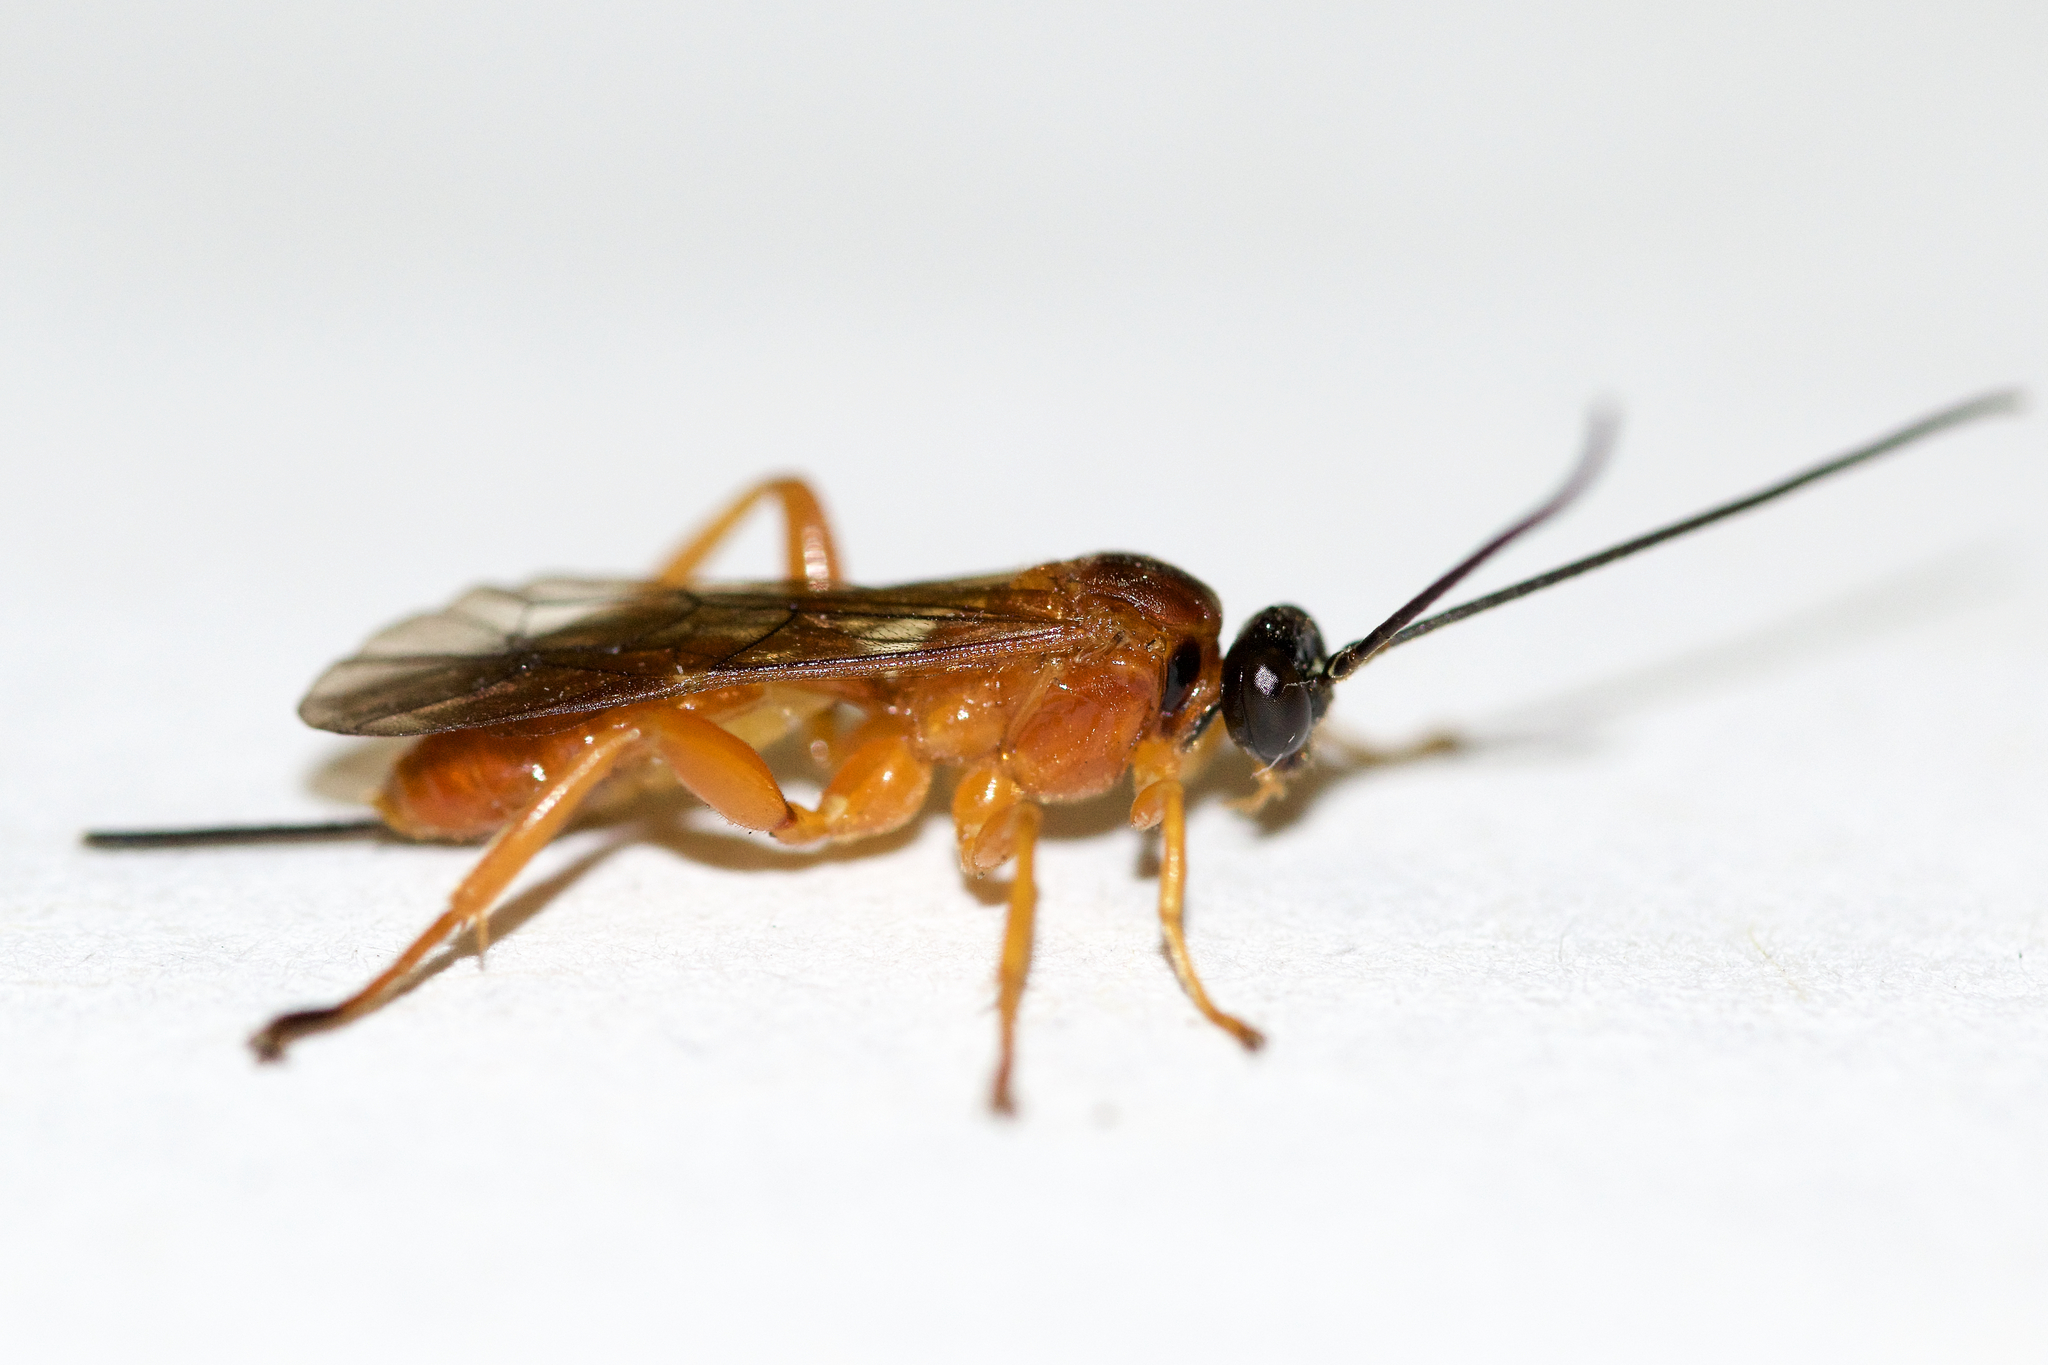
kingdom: Animalia
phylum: Arthropoda
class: Insecta
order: Hymenoptera
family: Ichneumonidae
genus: Theronia
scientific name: Theronia hilaris
